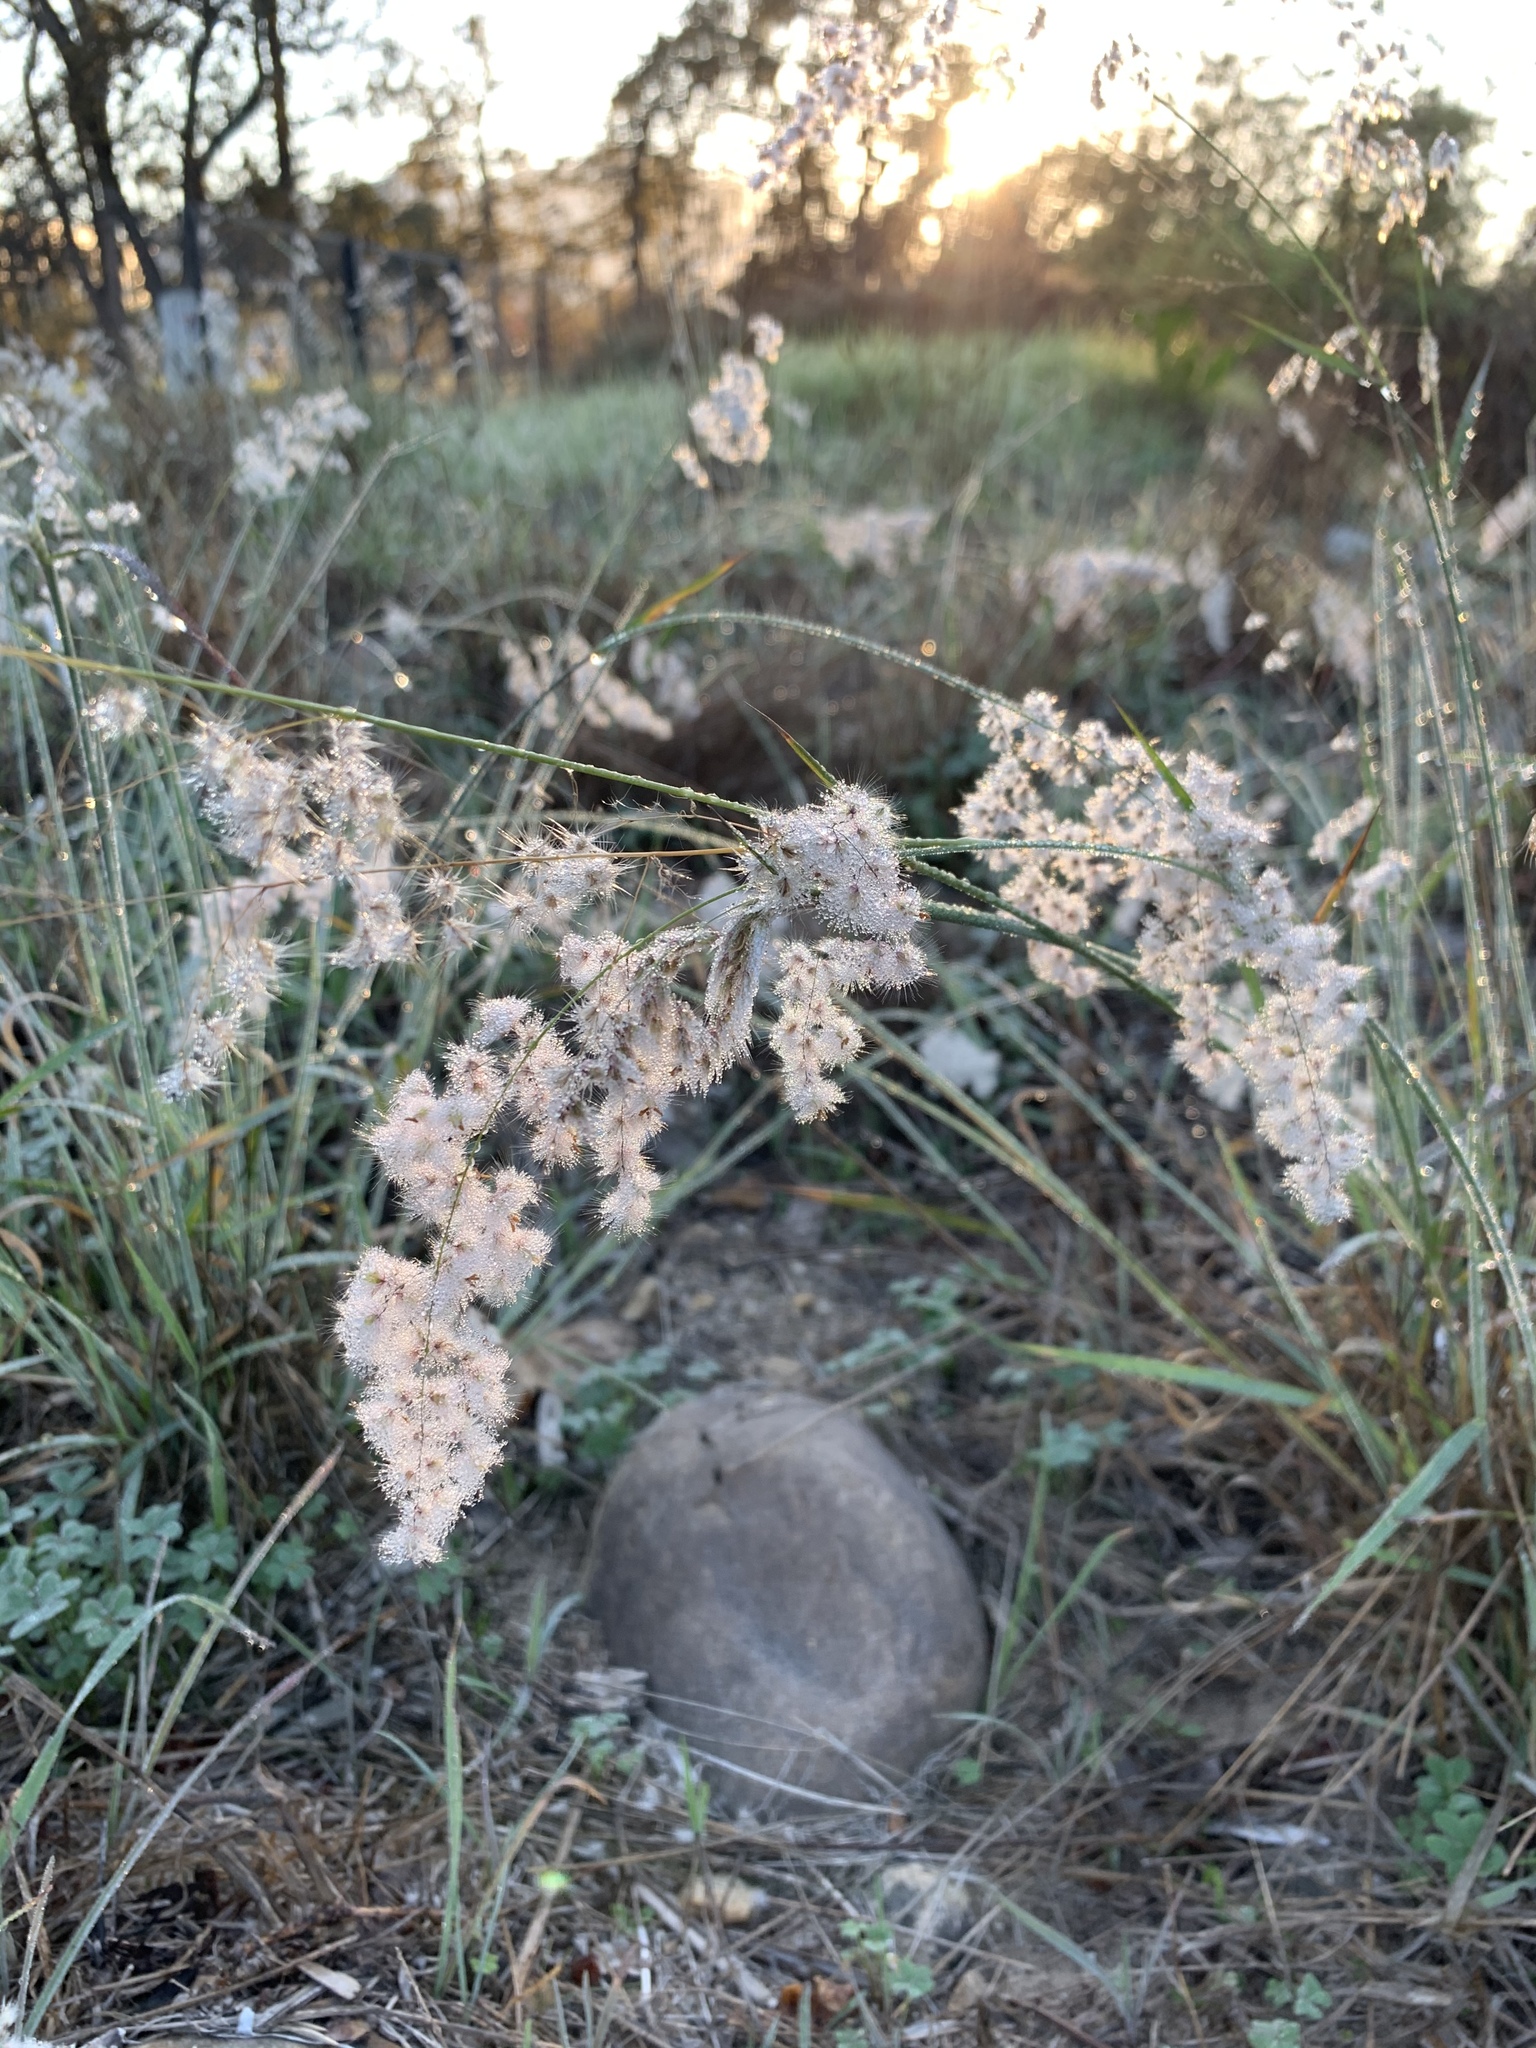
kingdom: Plantae
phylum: Tracheophyta
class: Liliopsida
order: Poales
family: Poaceae
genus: Melinis
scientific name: Melinis repens
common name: Rose natal grass
